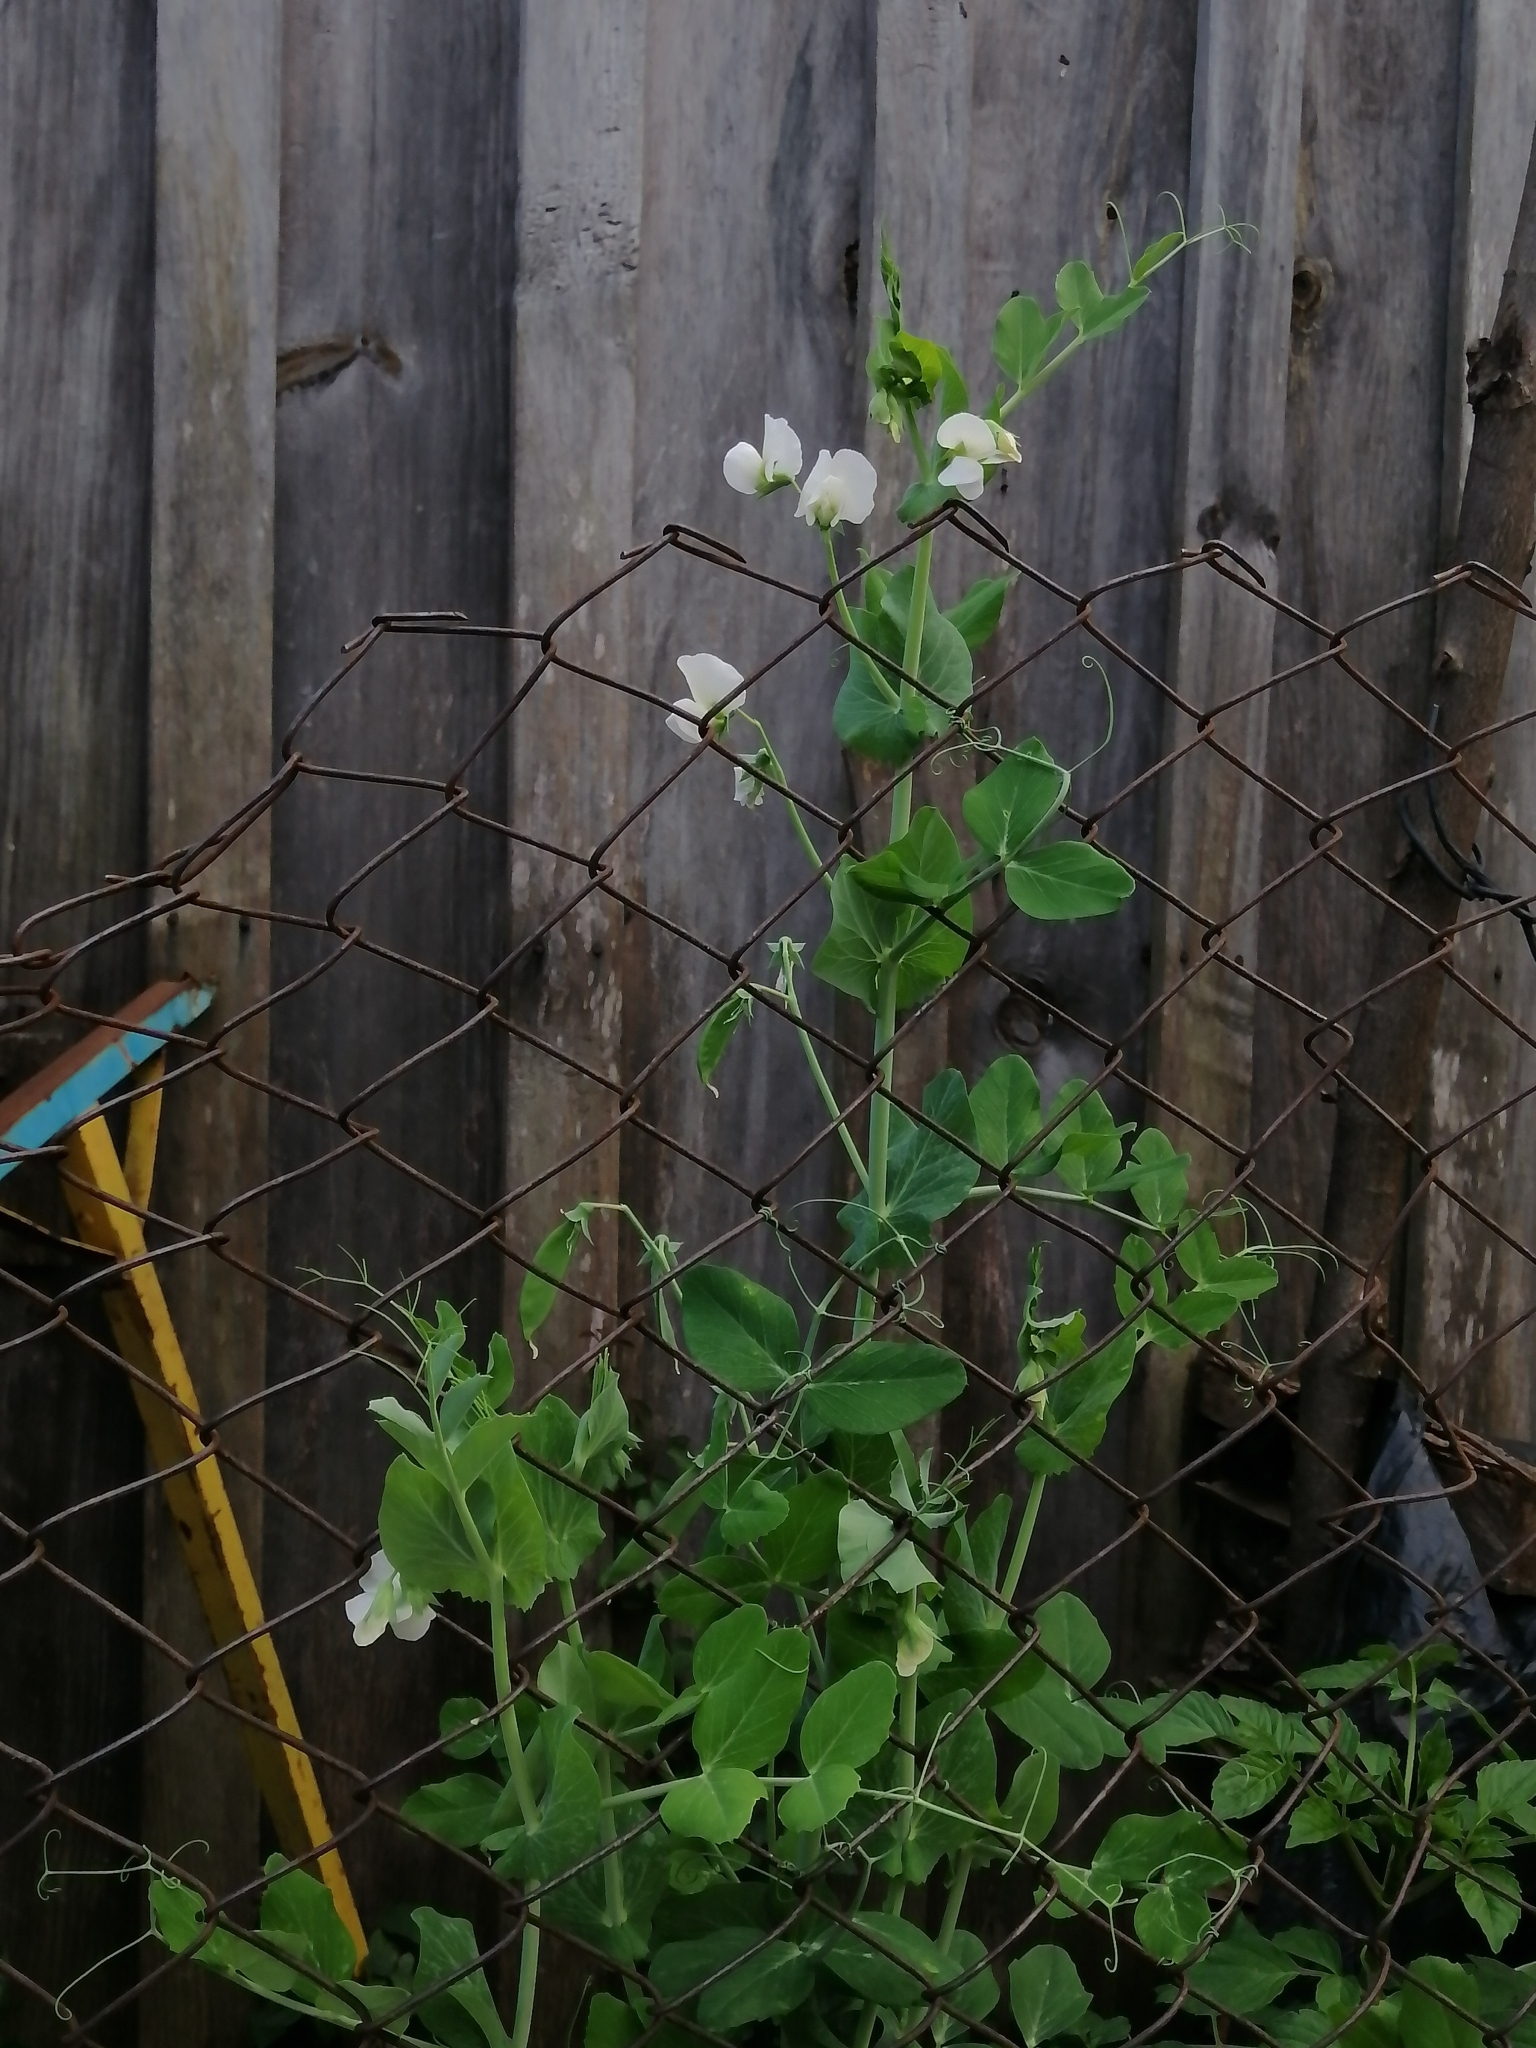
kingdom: Plantae
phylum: Tracheophyta
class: Magnoliopsida
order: Fabales
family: Fabaceae
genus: Lathyrus
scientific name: Lathyrus oleraceus
